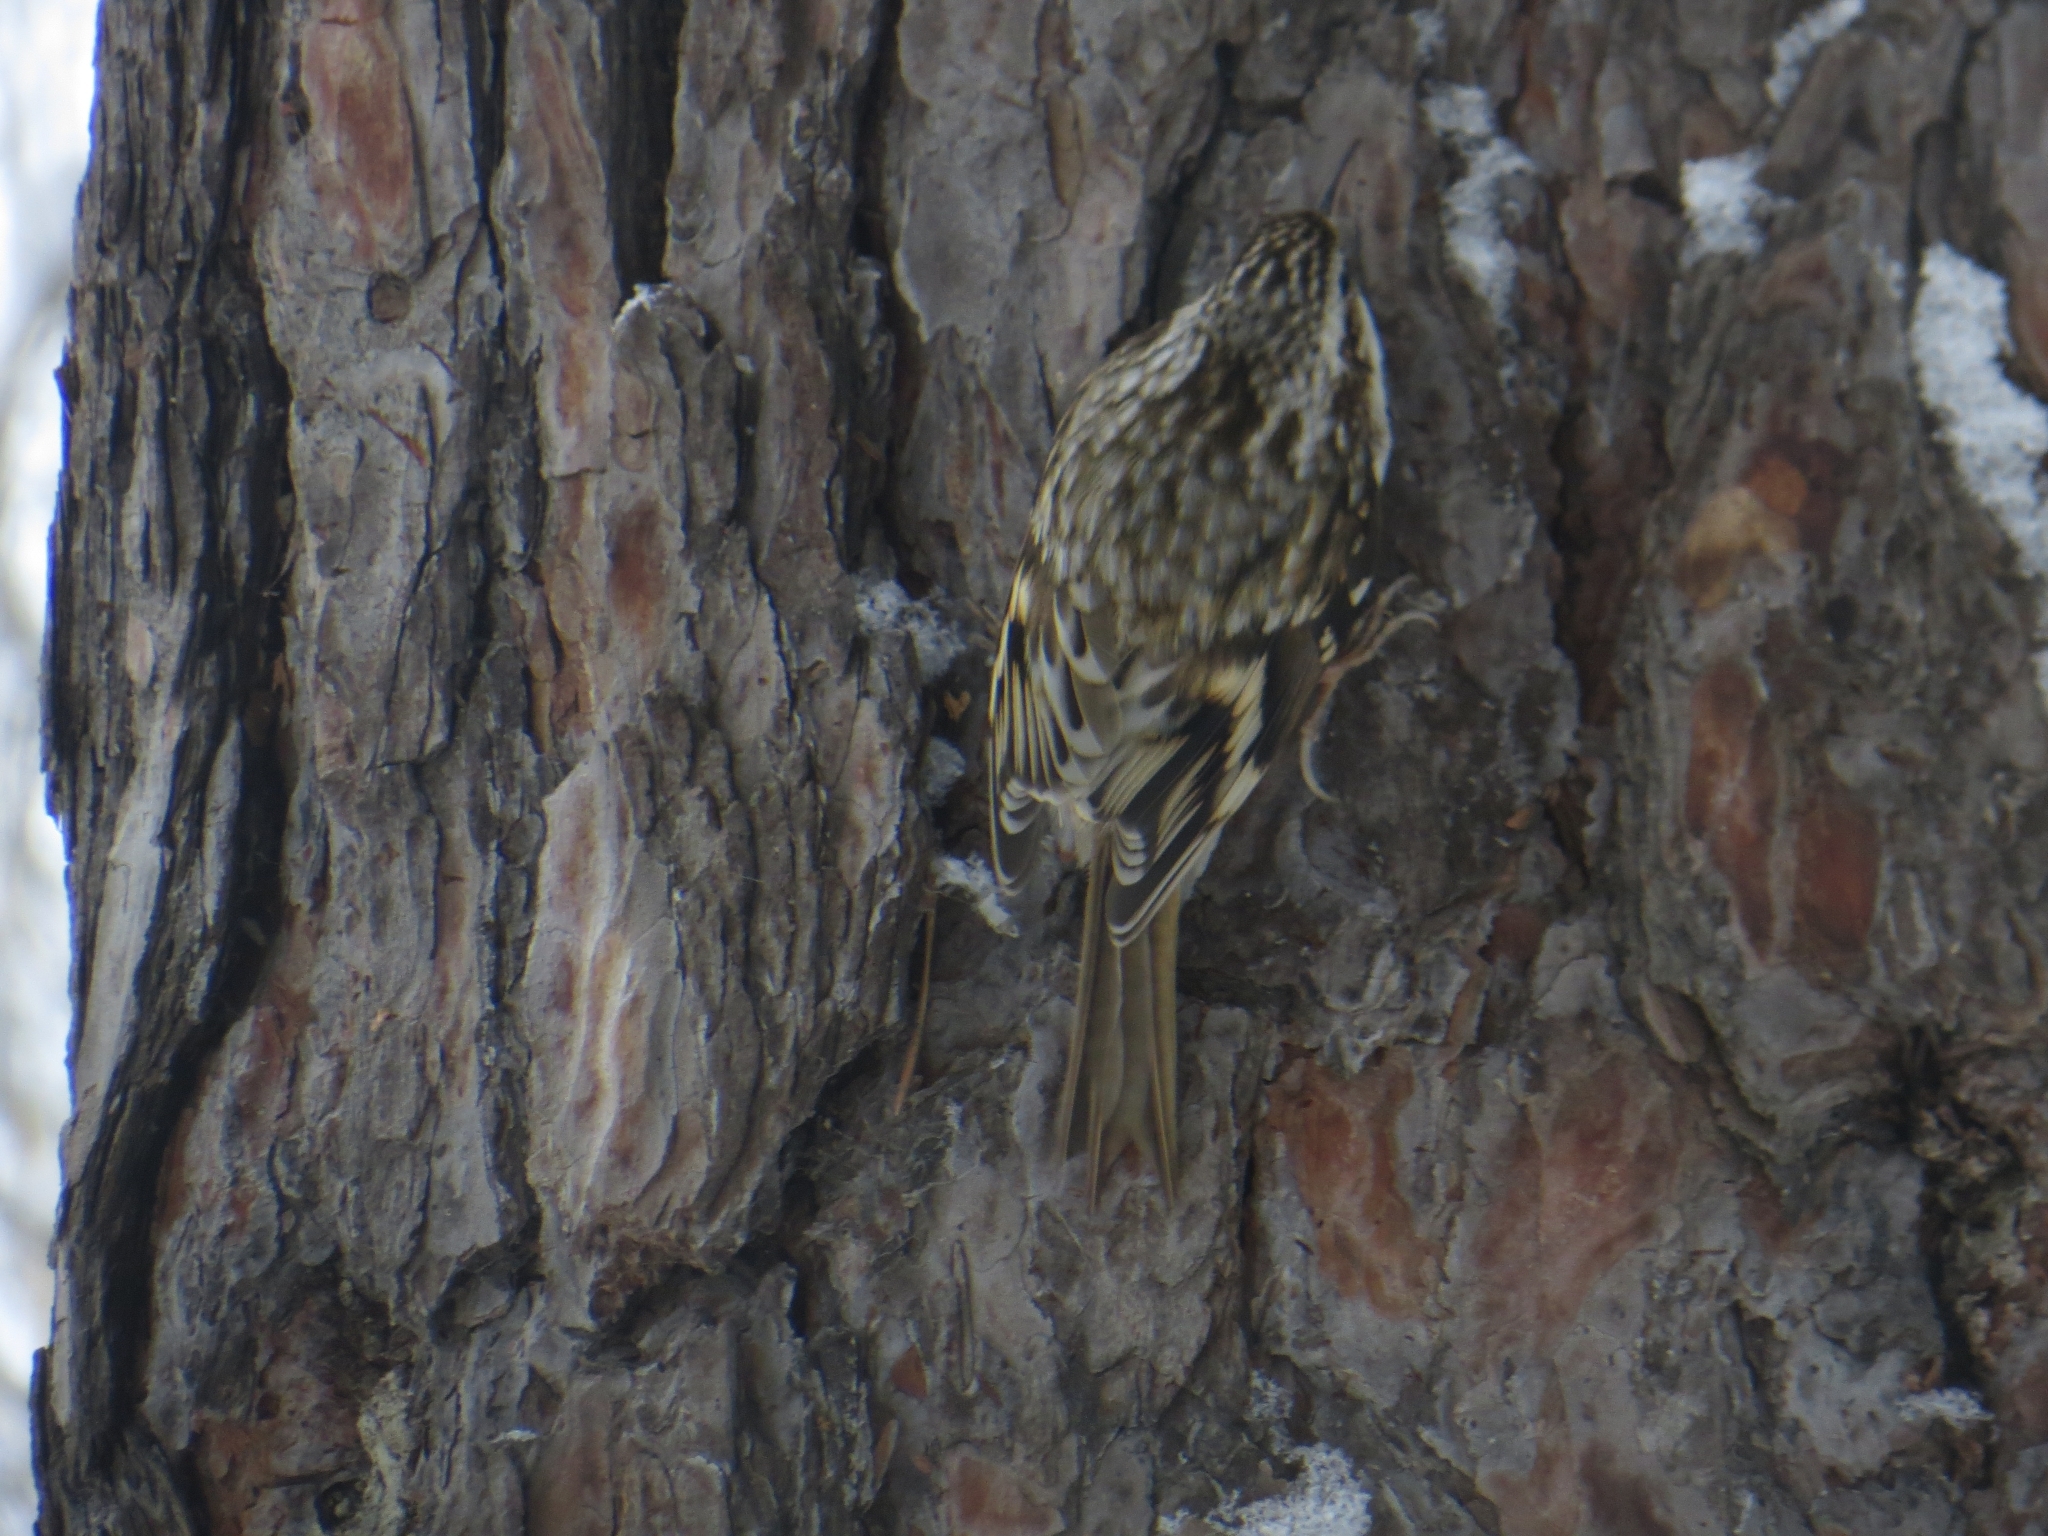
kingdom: Animalia
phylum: Chordata
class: Aves
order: Passeriformes
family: Certhiidae
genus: Certhia
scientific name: Certhia familiaris
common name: Eurasian treecreeper
